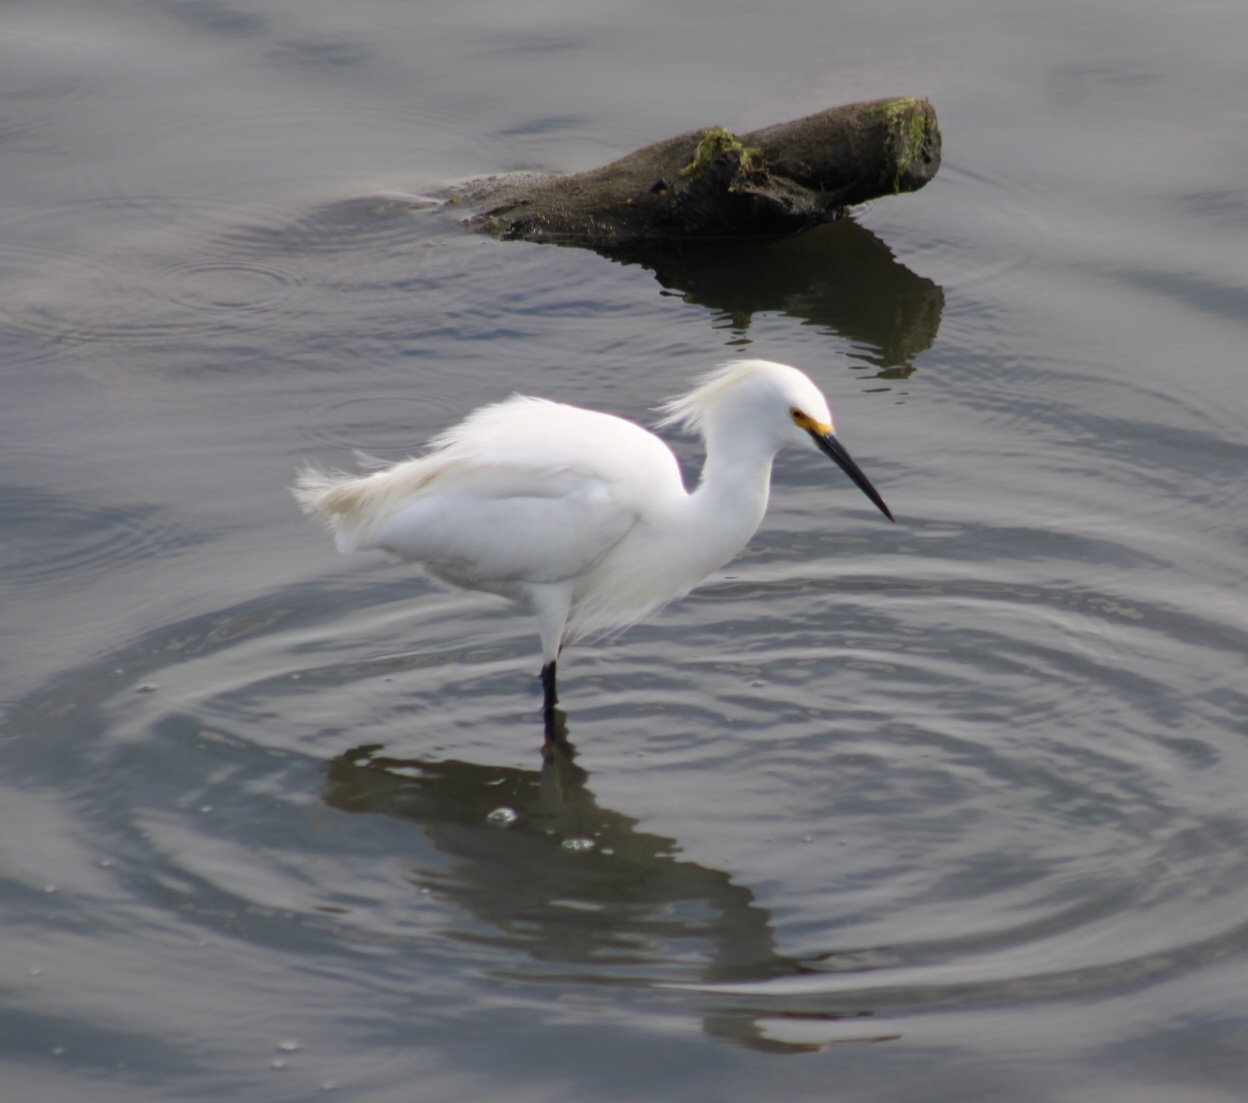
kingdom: Animalia
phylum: Chordata
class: Aves
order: Pelecaniformes
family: Ardeidae
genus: Egretta
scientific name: Egretta thula
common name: Snowy egret
